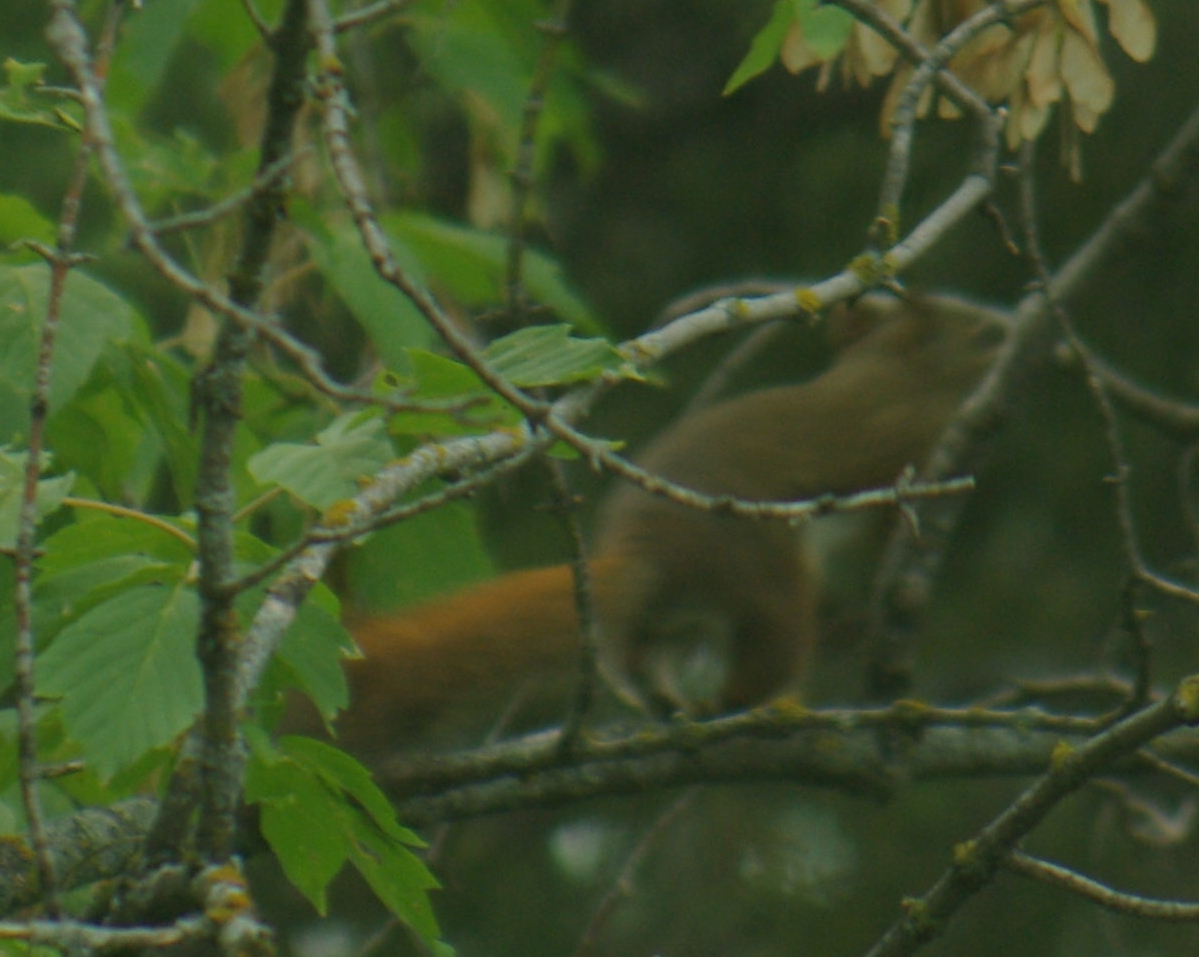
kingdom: Animalia
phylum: Chordata
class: Mammalia
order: Rodentia
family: Sciuridae
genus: Tamiasciurus
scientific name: Tamiasciurus hudsonicus
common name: Red squirrel
